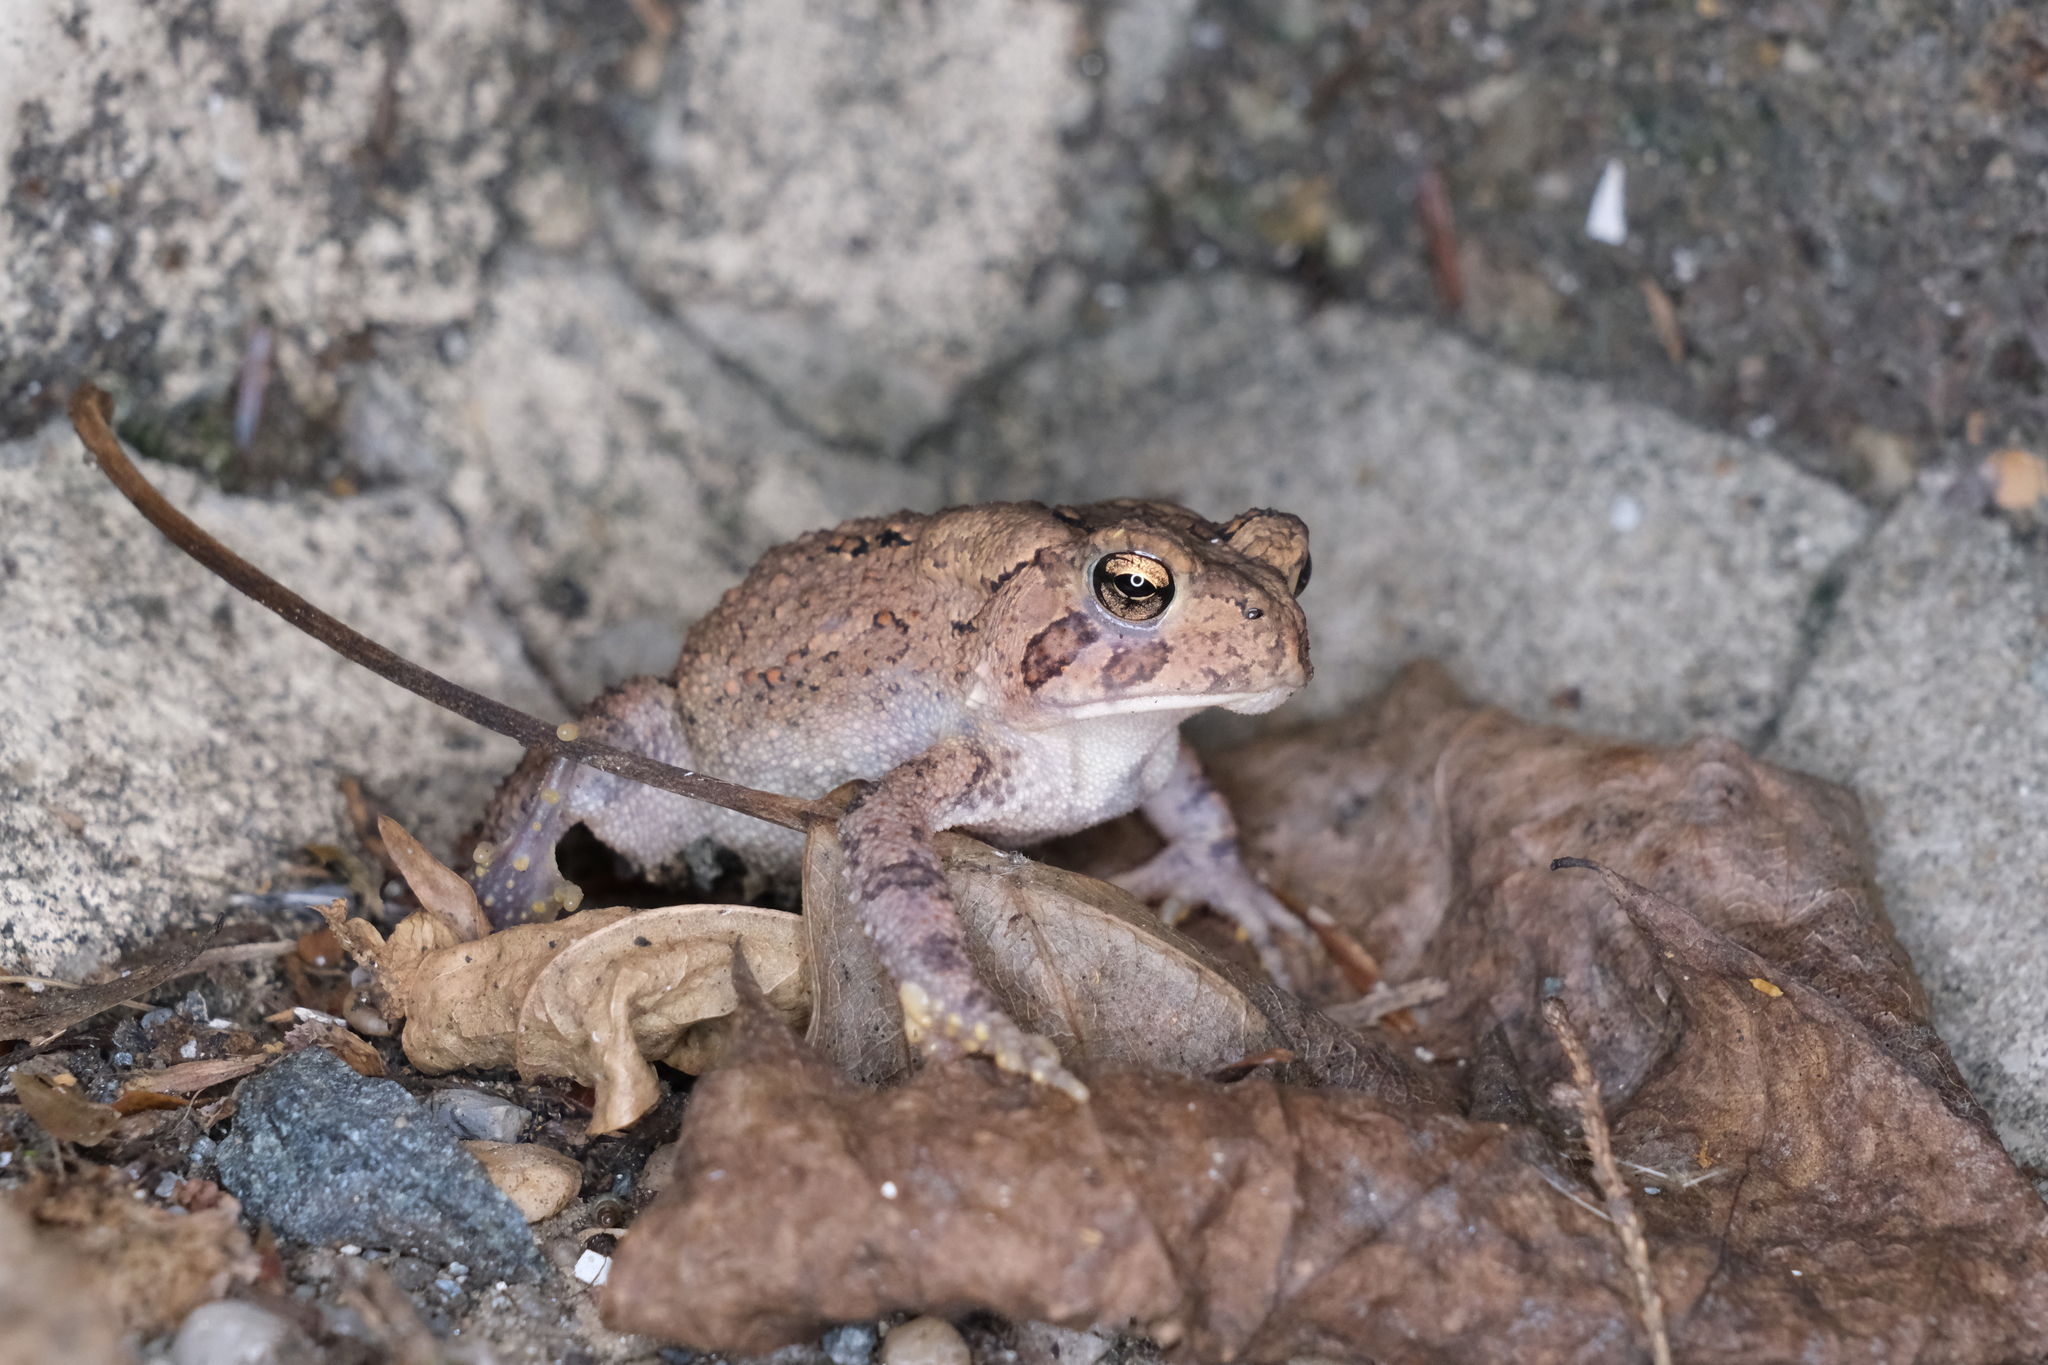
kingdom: Animalia
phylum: Chordata
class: Amphibia
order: Anura
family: Bufonidae
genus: Anaxyrus
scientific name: Anaxyrus americanus
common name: American toad
